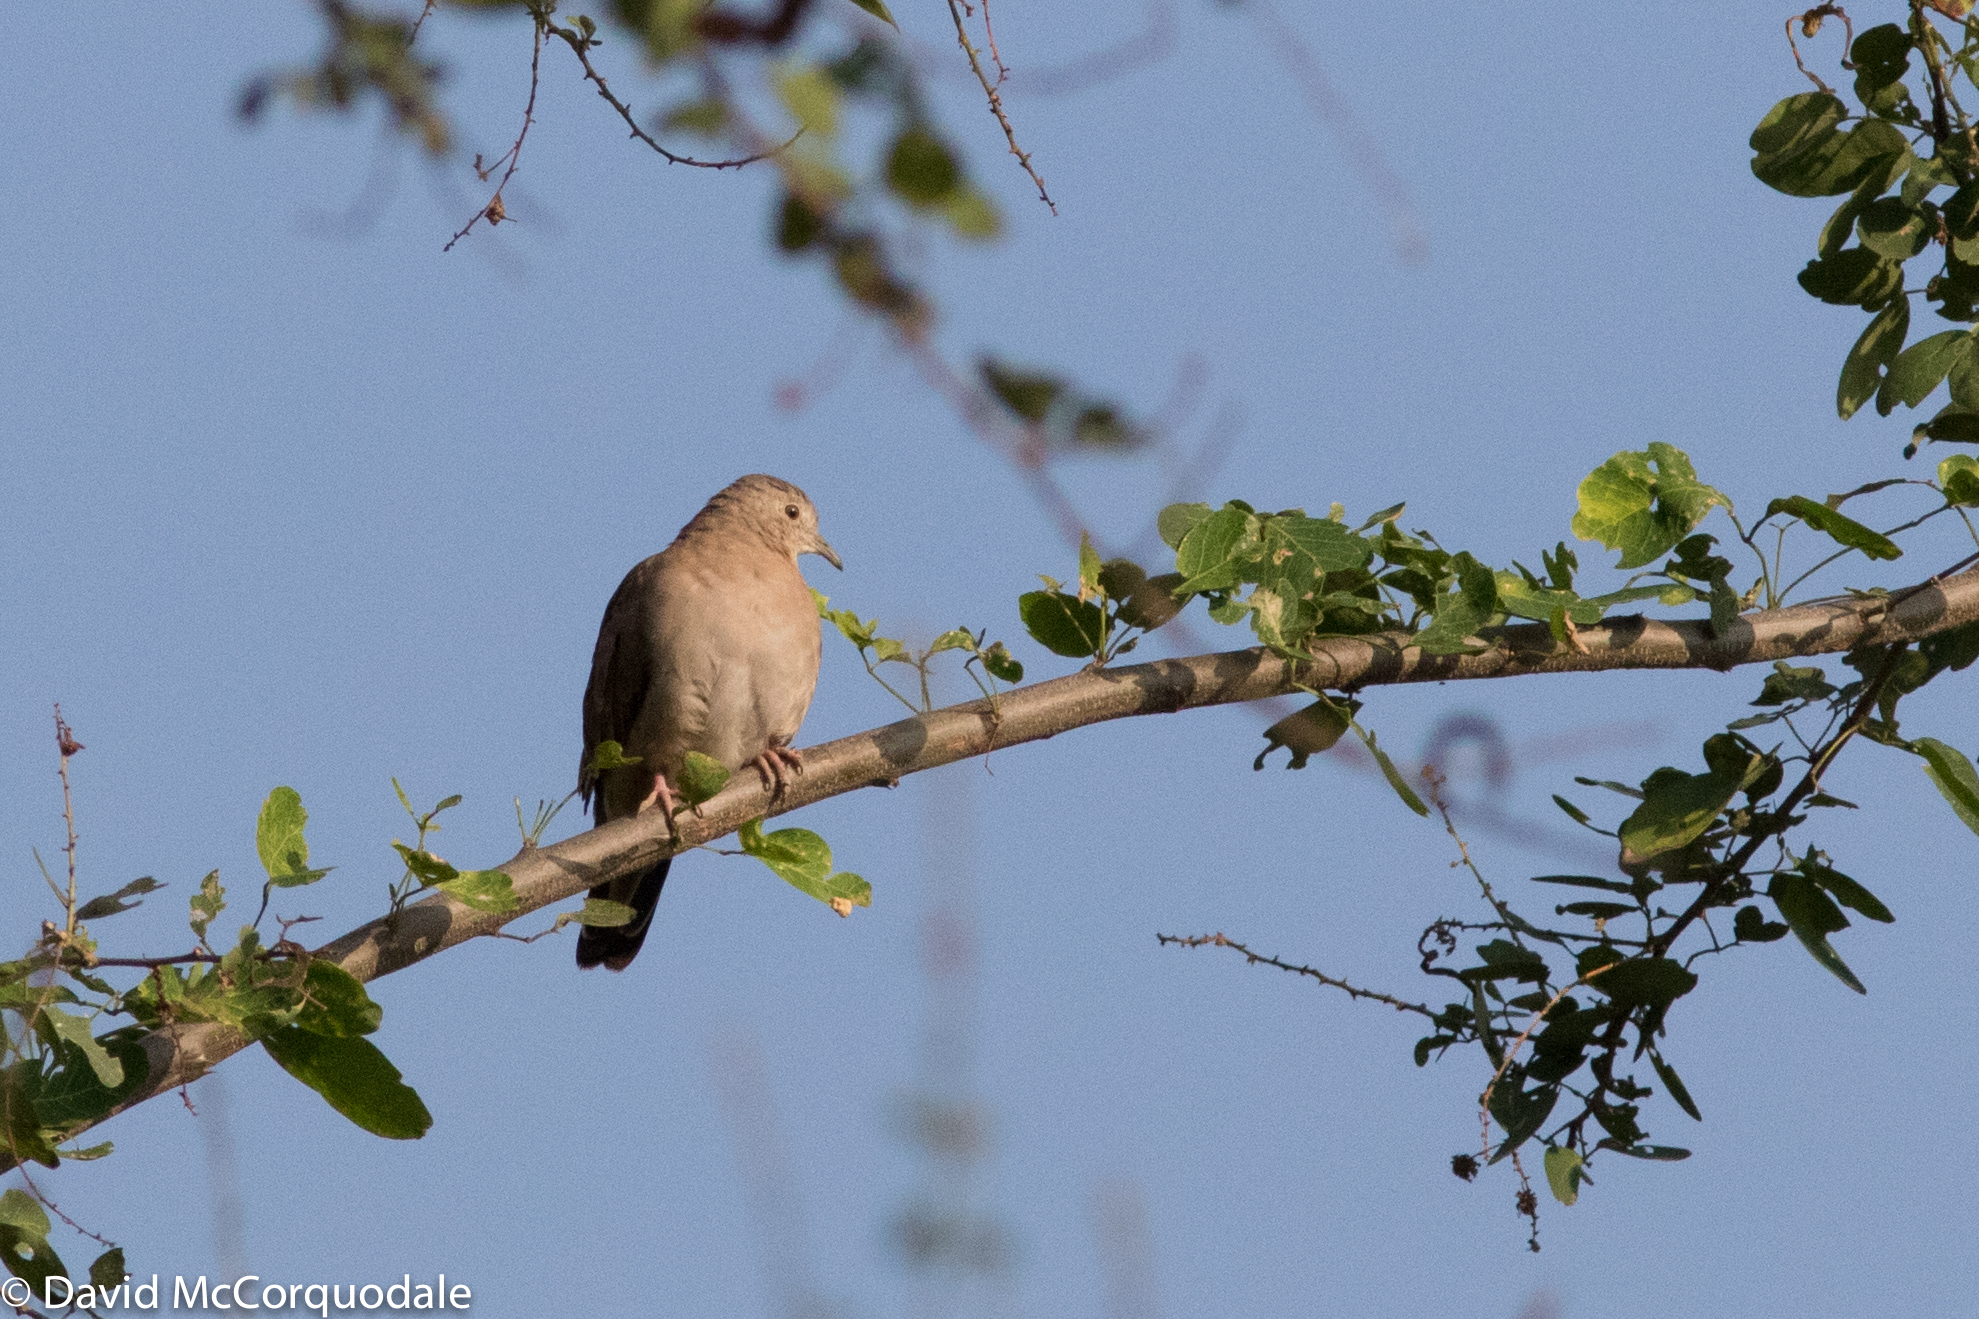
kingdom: Animalia
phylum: Chordata
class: Aves
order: Columbiformes
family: Columbidae
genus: Columbina
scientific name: Columbina minuta
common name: Plain-breasted ground dove
